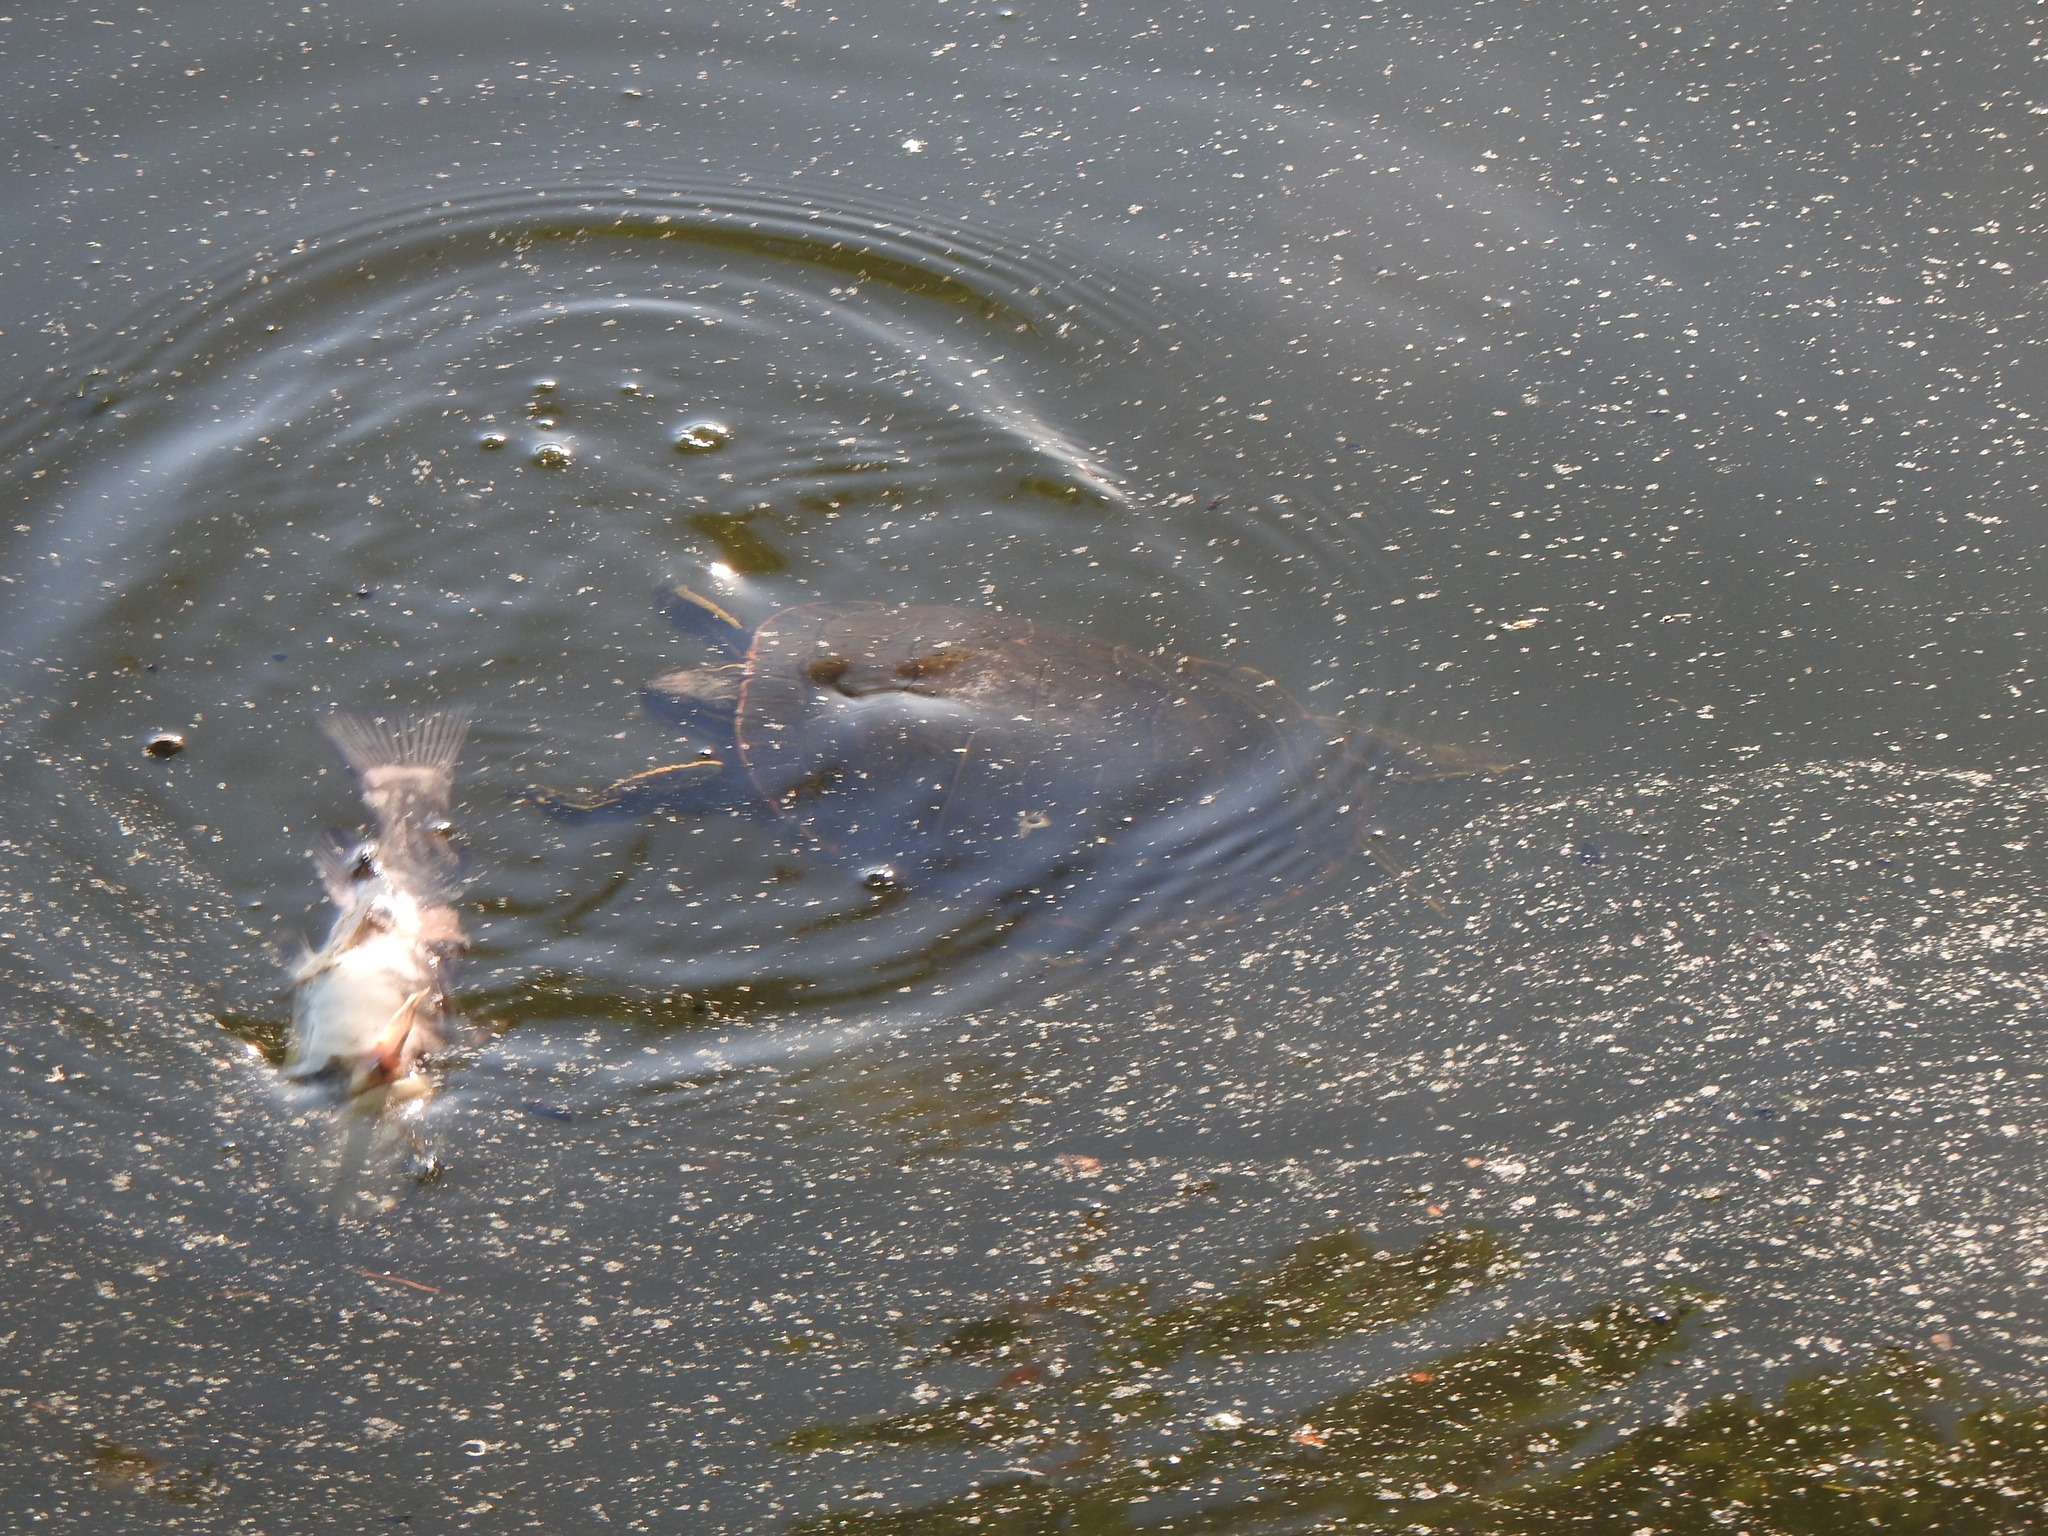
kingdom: Animalia
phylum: Chordata
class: Testudines
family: Emydidae
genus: Chrysemys
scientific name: Chrysemys picta
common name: Painted turtle
